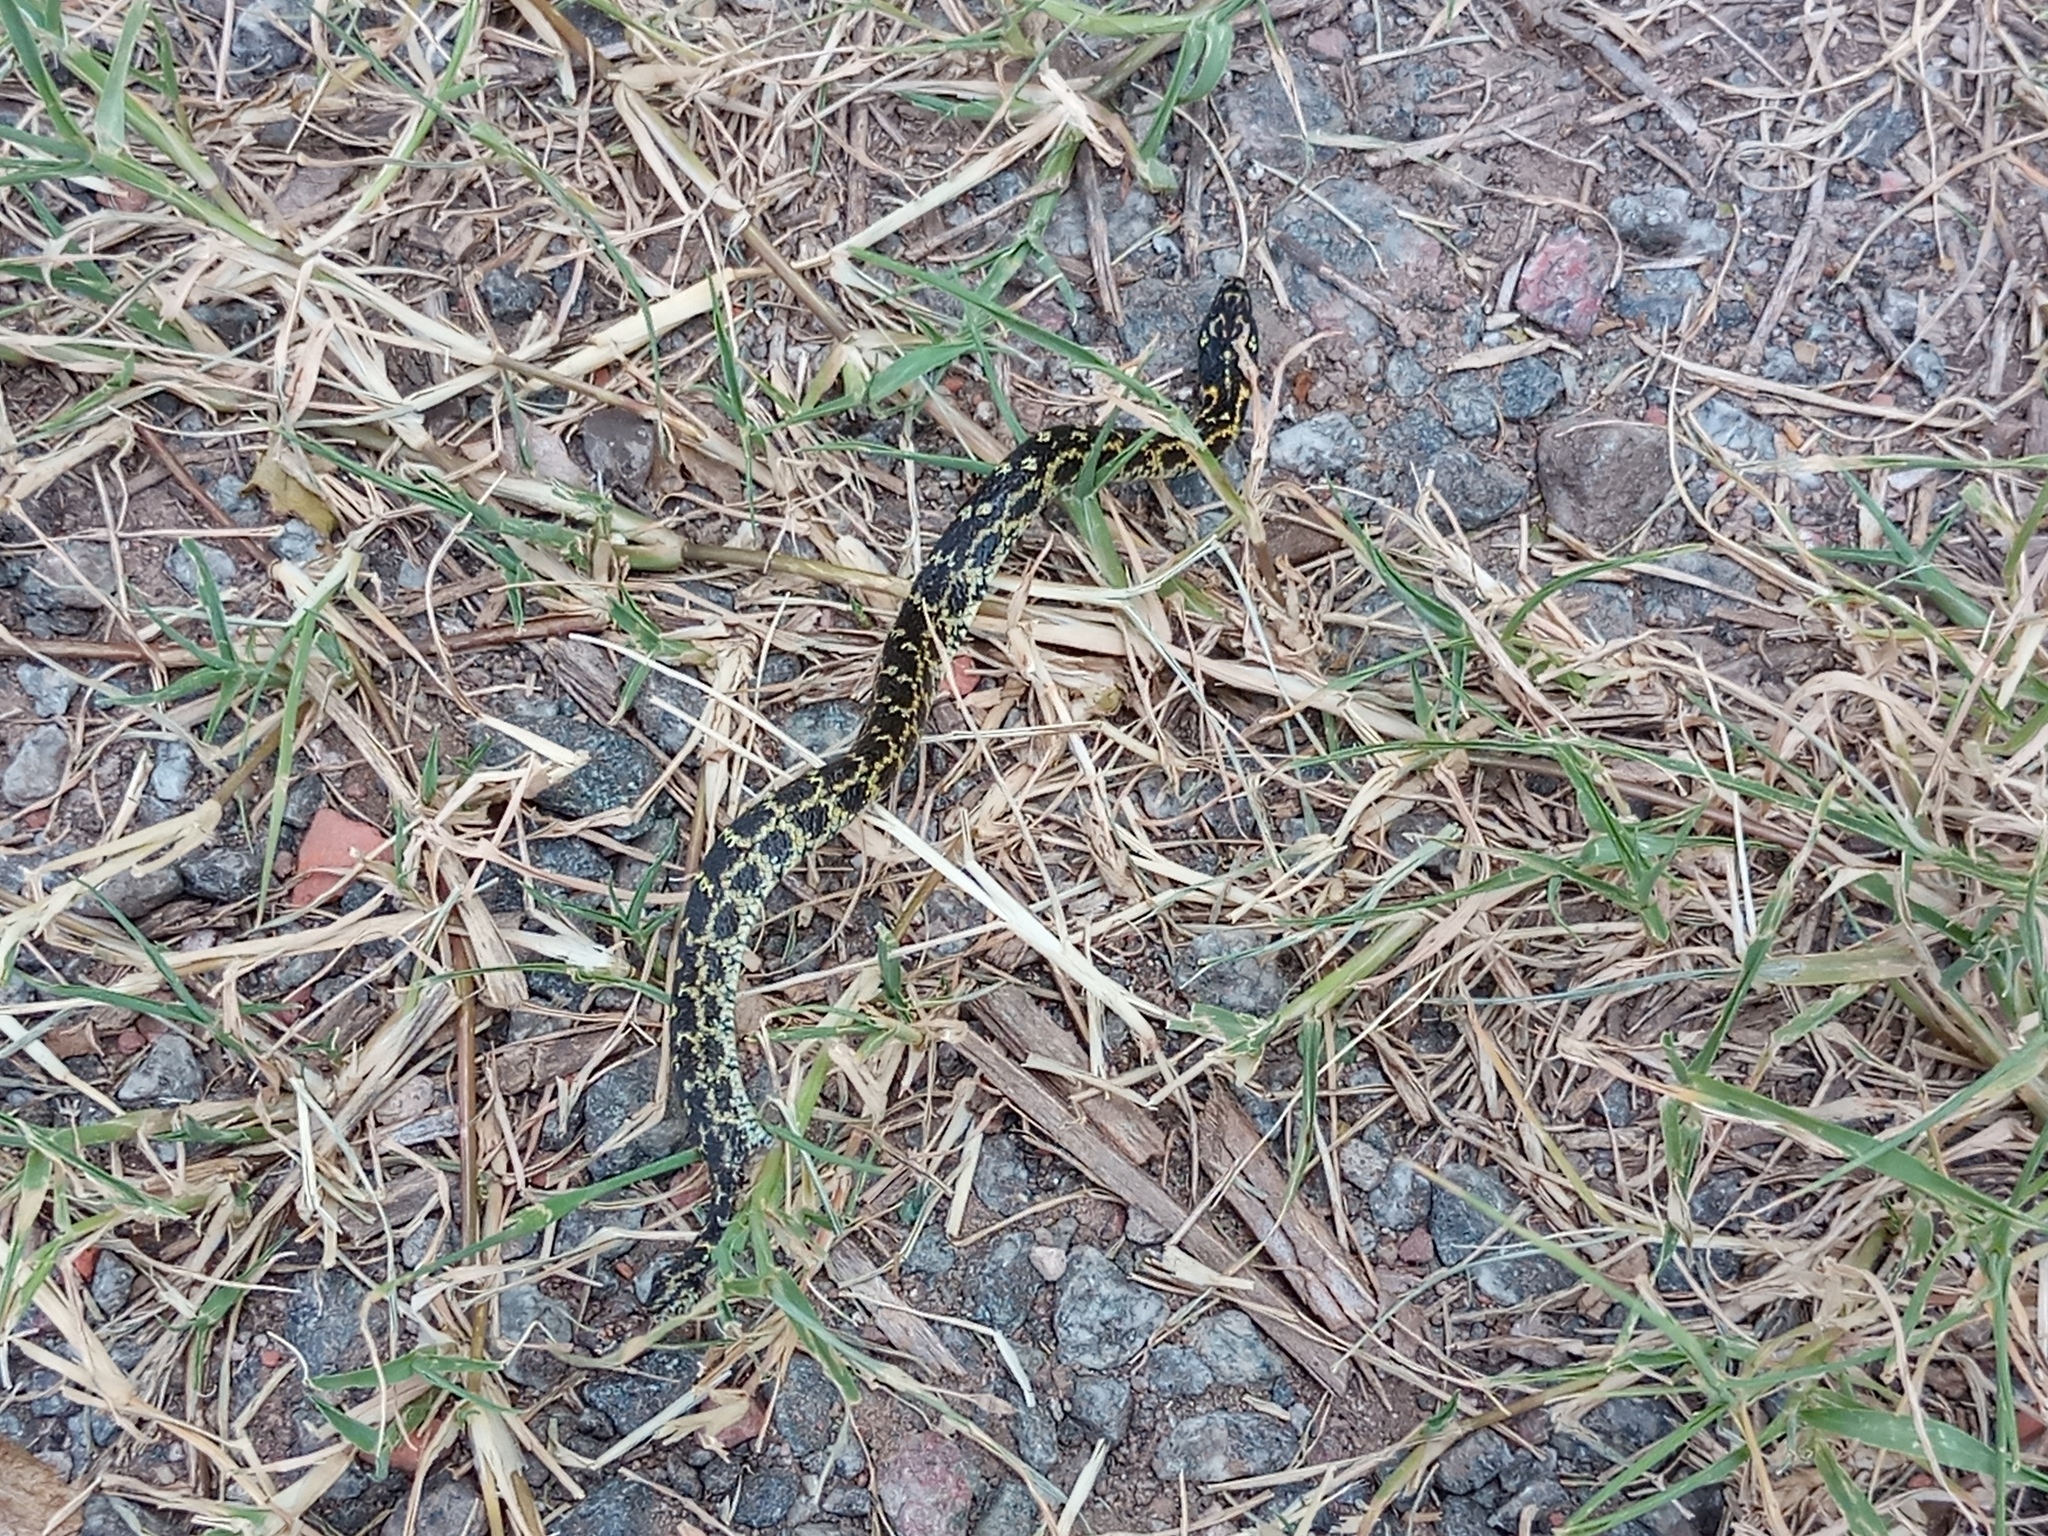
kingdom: Animalia
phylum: Chordata
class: Squamata
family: Colubridae
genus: Erythrolamprus
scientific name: Erythrolamprus poecilogyrus
